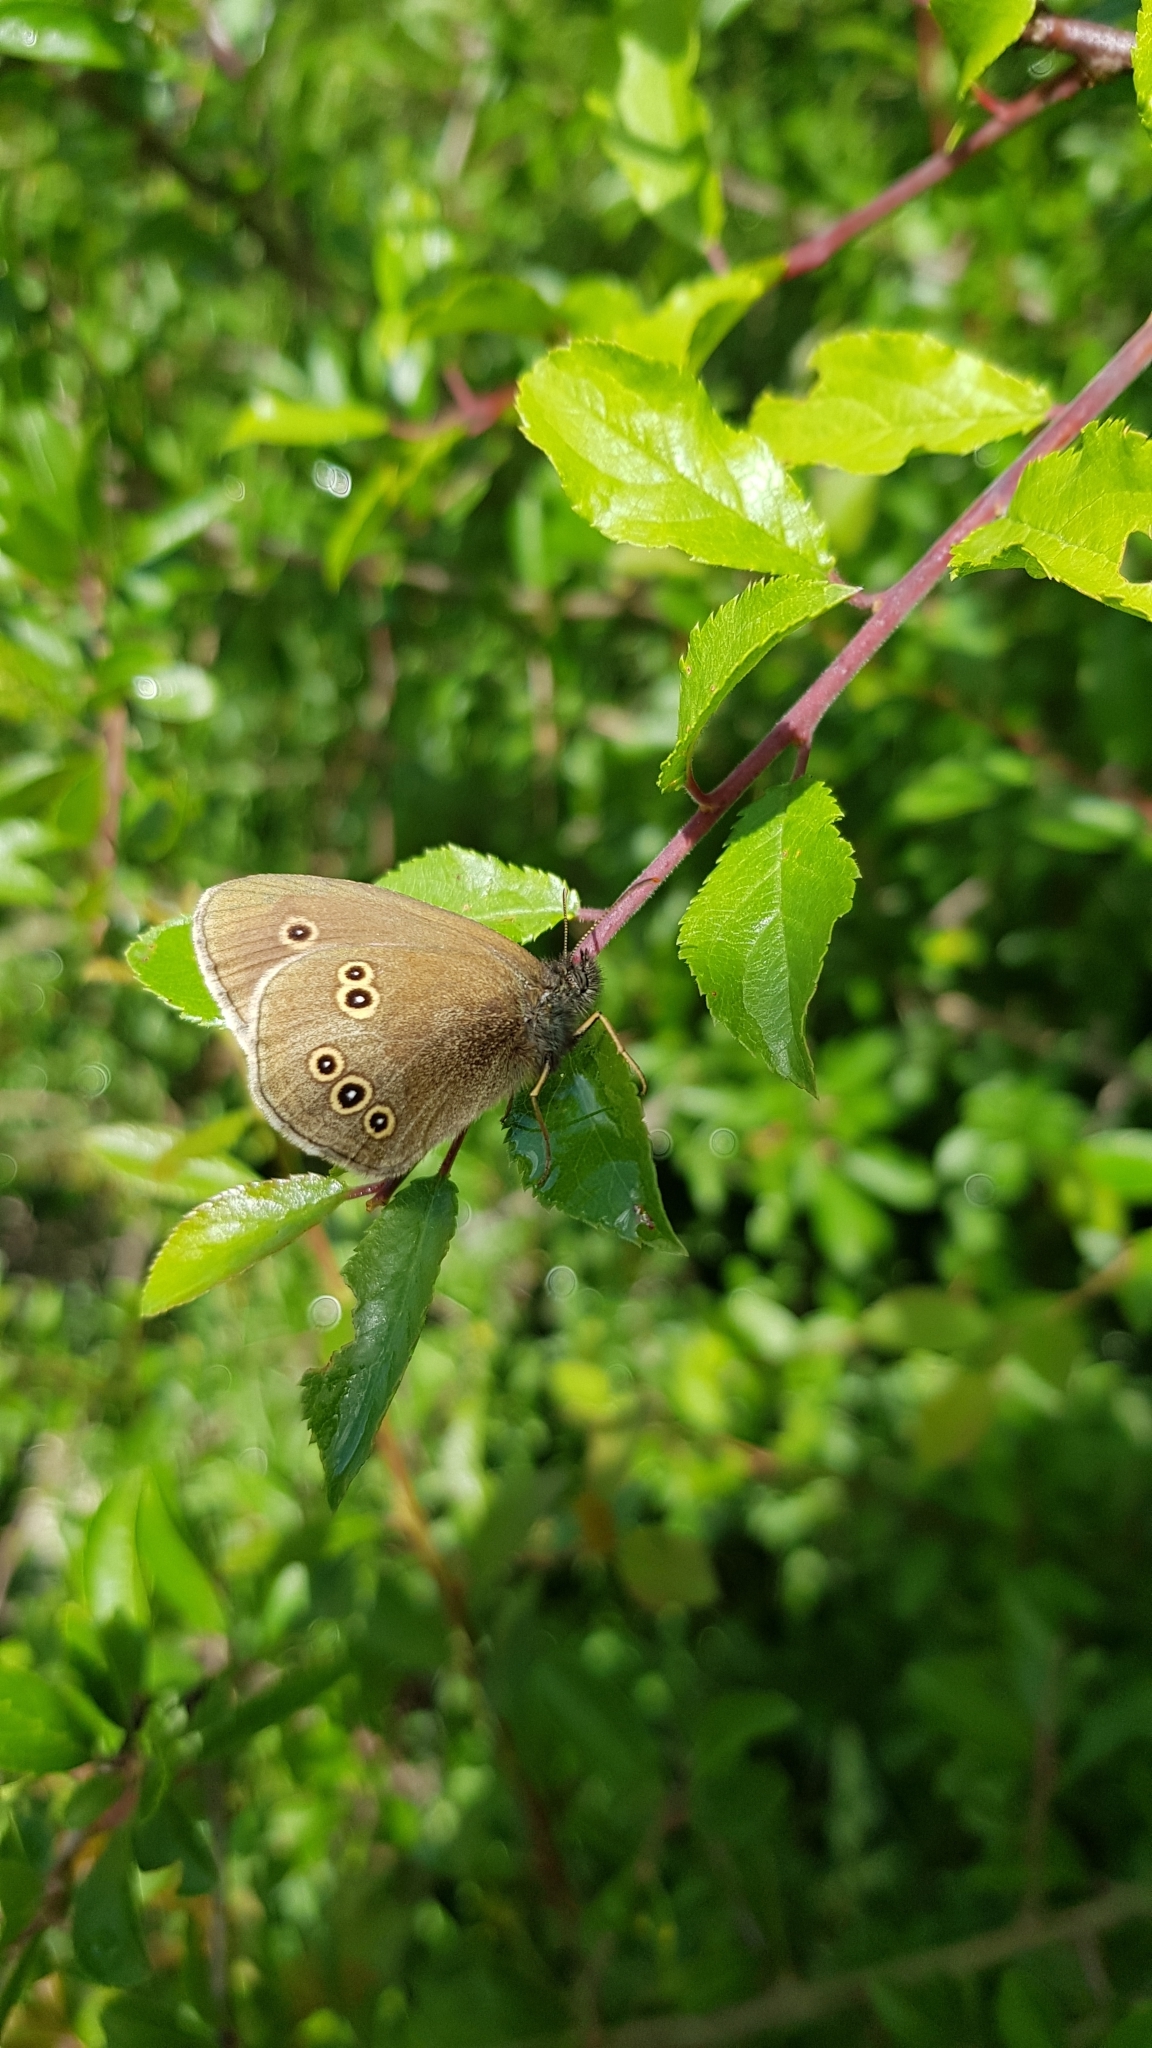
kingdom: Animalia
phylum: Arthropoda
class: Insecta
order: Lepidoptera
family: Nymphalidae
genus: Aphantopus
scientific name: Aphantopus hyperantus
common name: Ringlet
